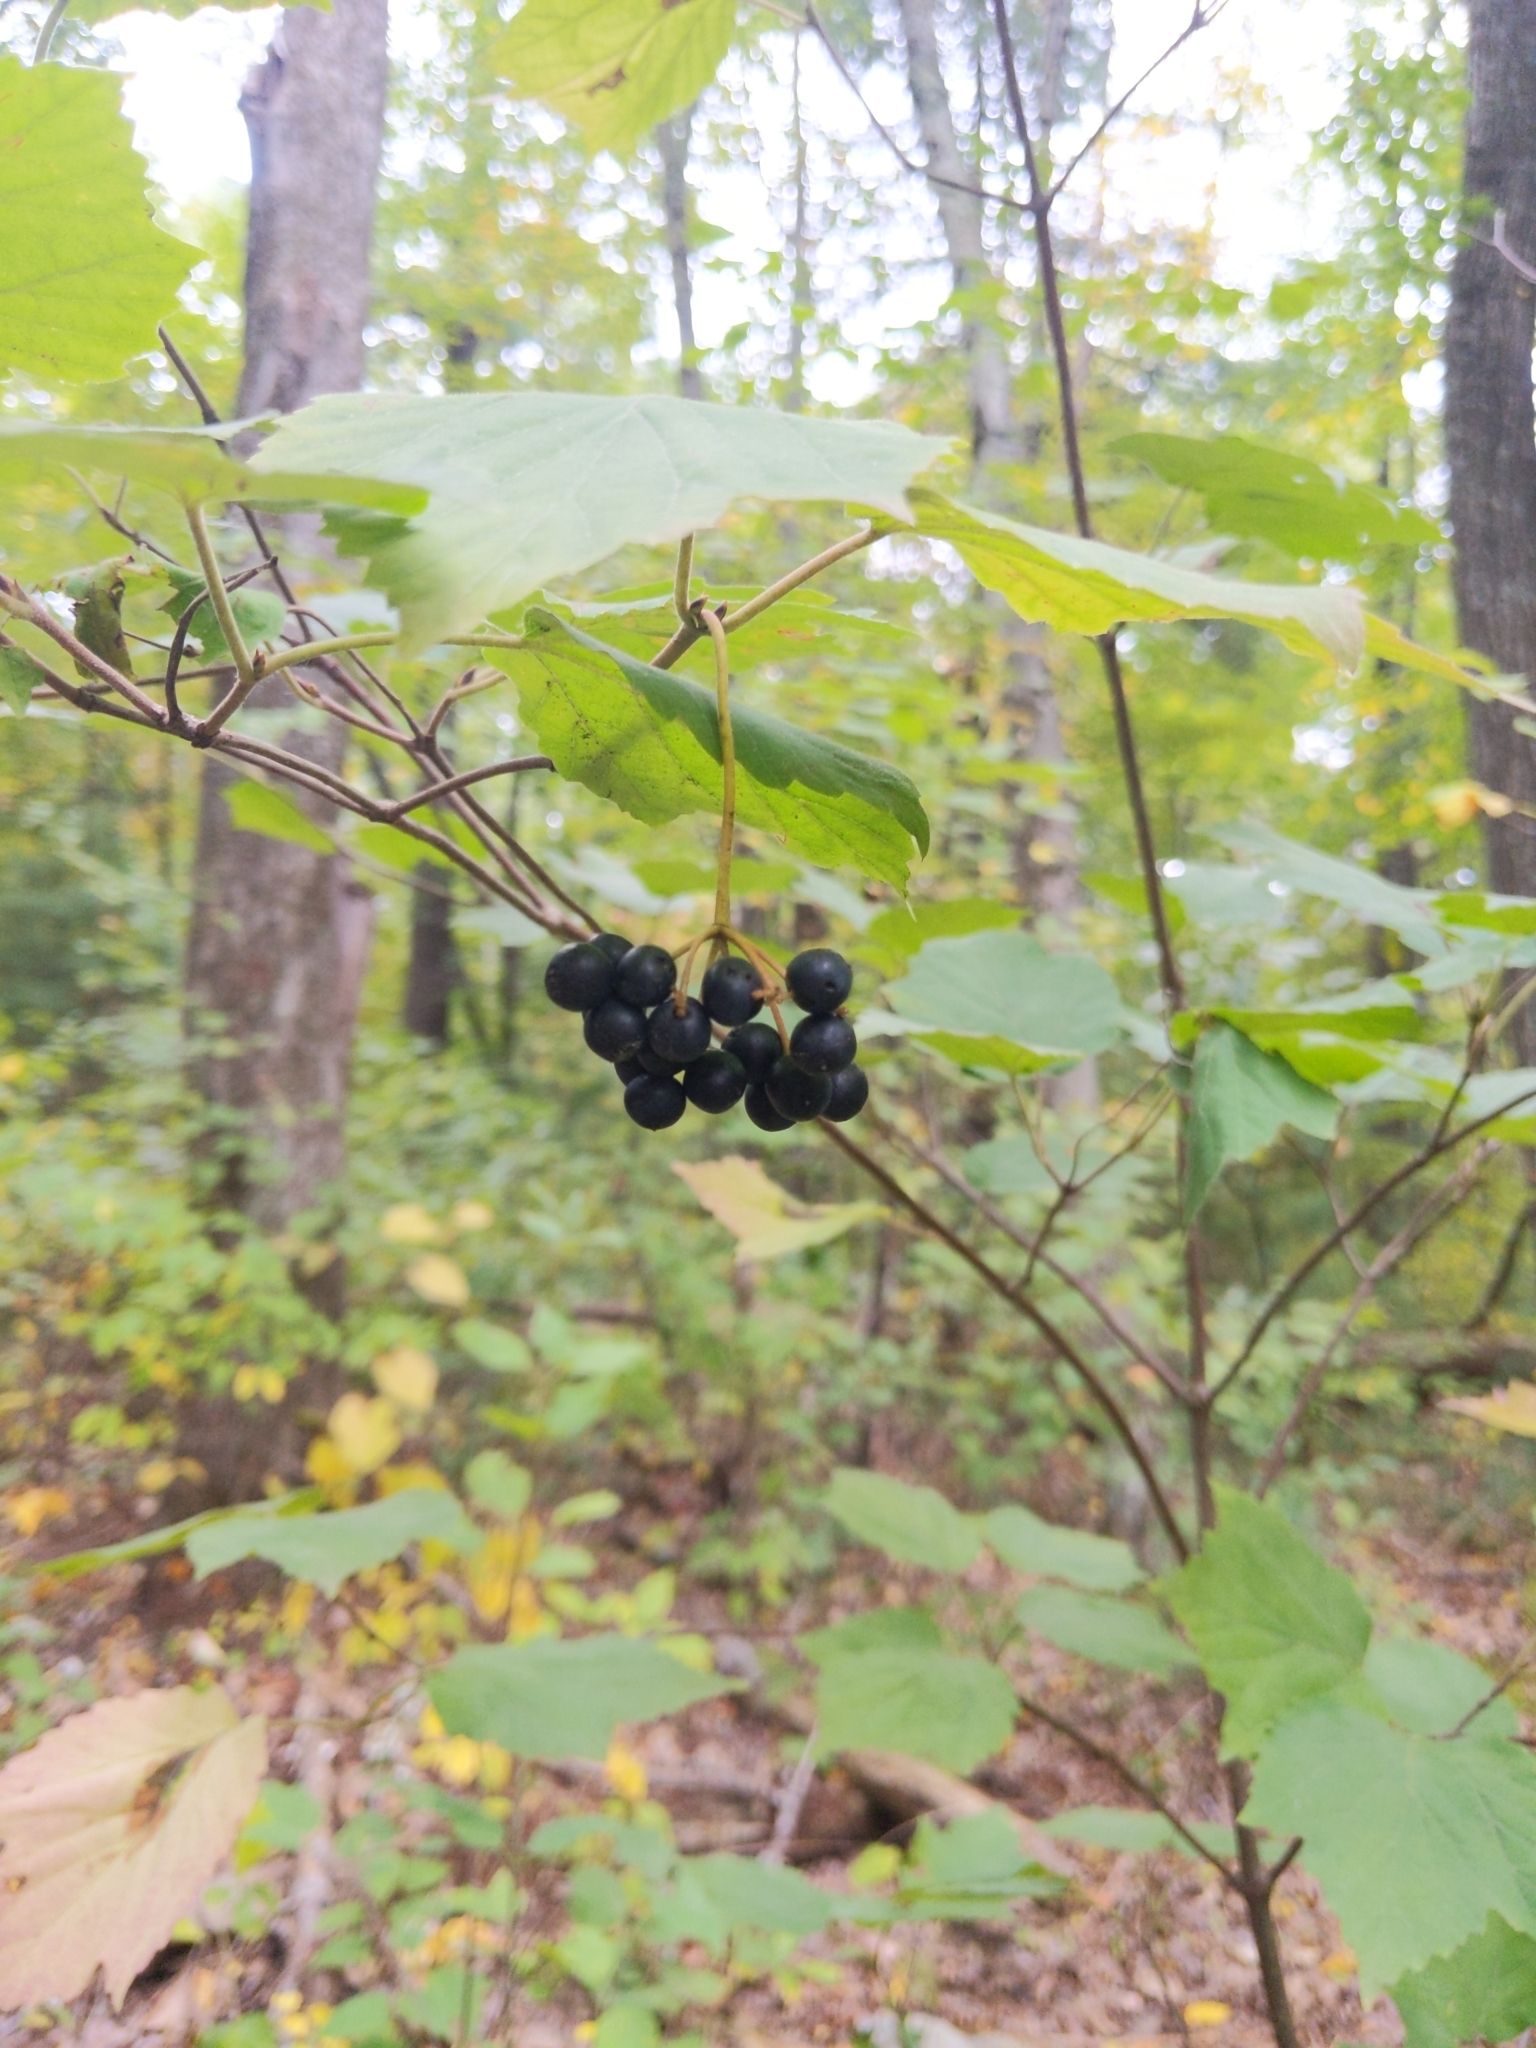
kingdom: Plantae
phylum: Tracheophyta
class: Magnoliopsida
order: Dipsacales
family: Viburnaceae
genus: Viburnum
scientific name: Viburnum acerifolium
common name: Dockmackie
